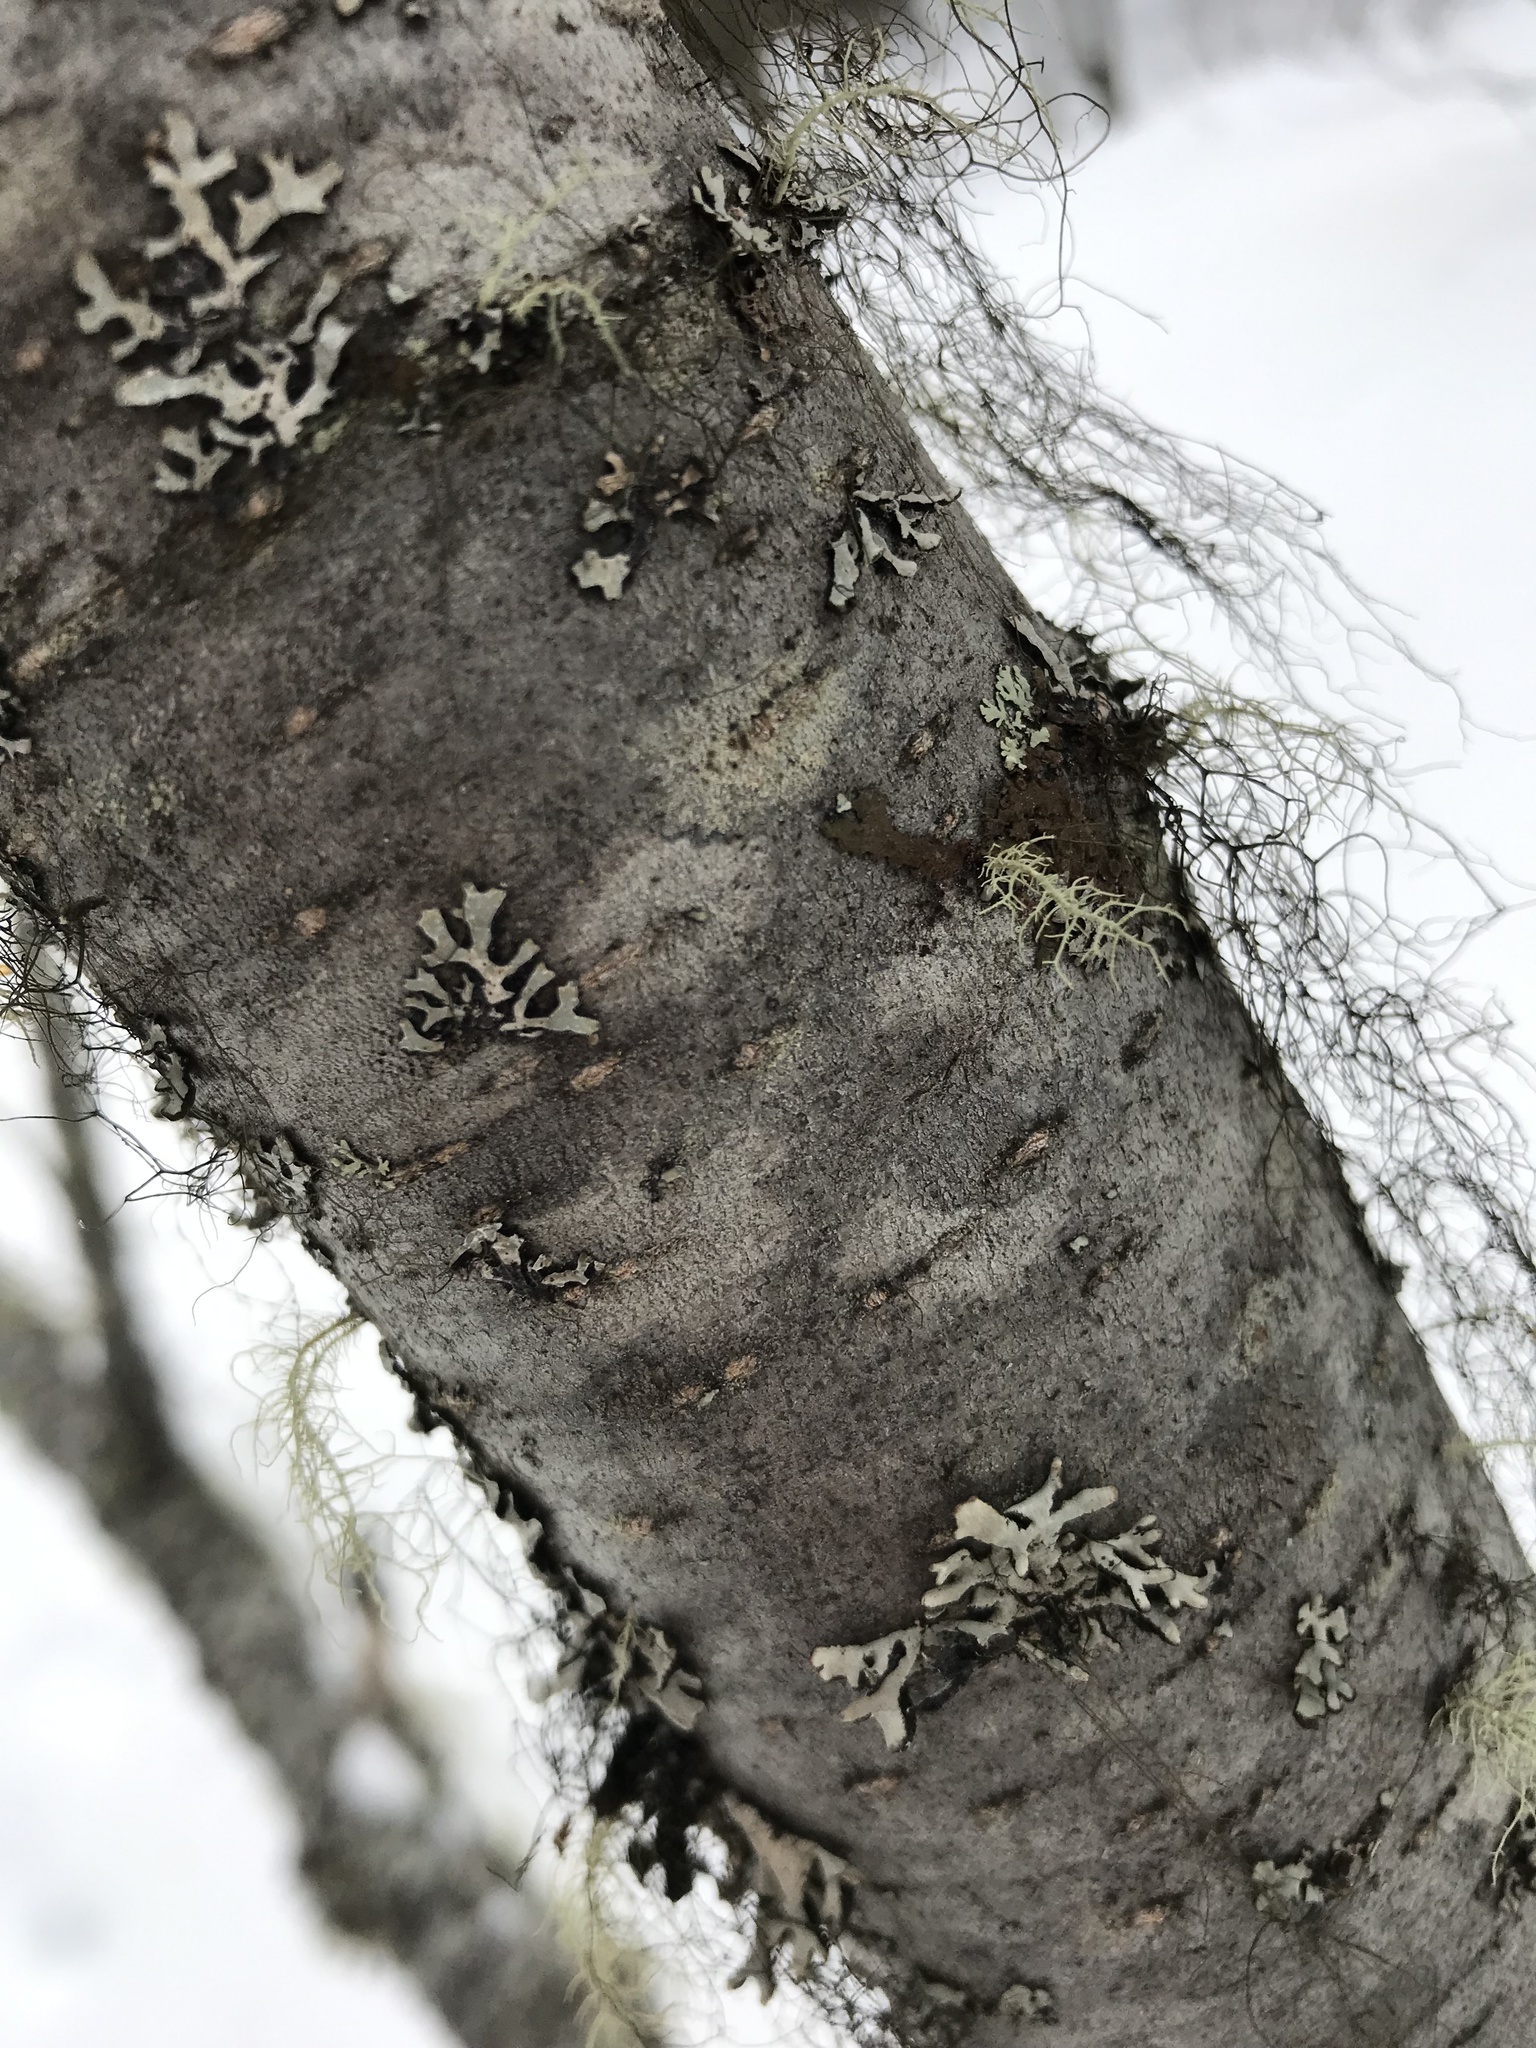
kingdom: Plantae
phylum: Tracheophyta
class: Magnoliopsida
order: Fagales
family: Betulaceae
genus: Alnus
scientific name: Alnus incana
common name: Grey alder
